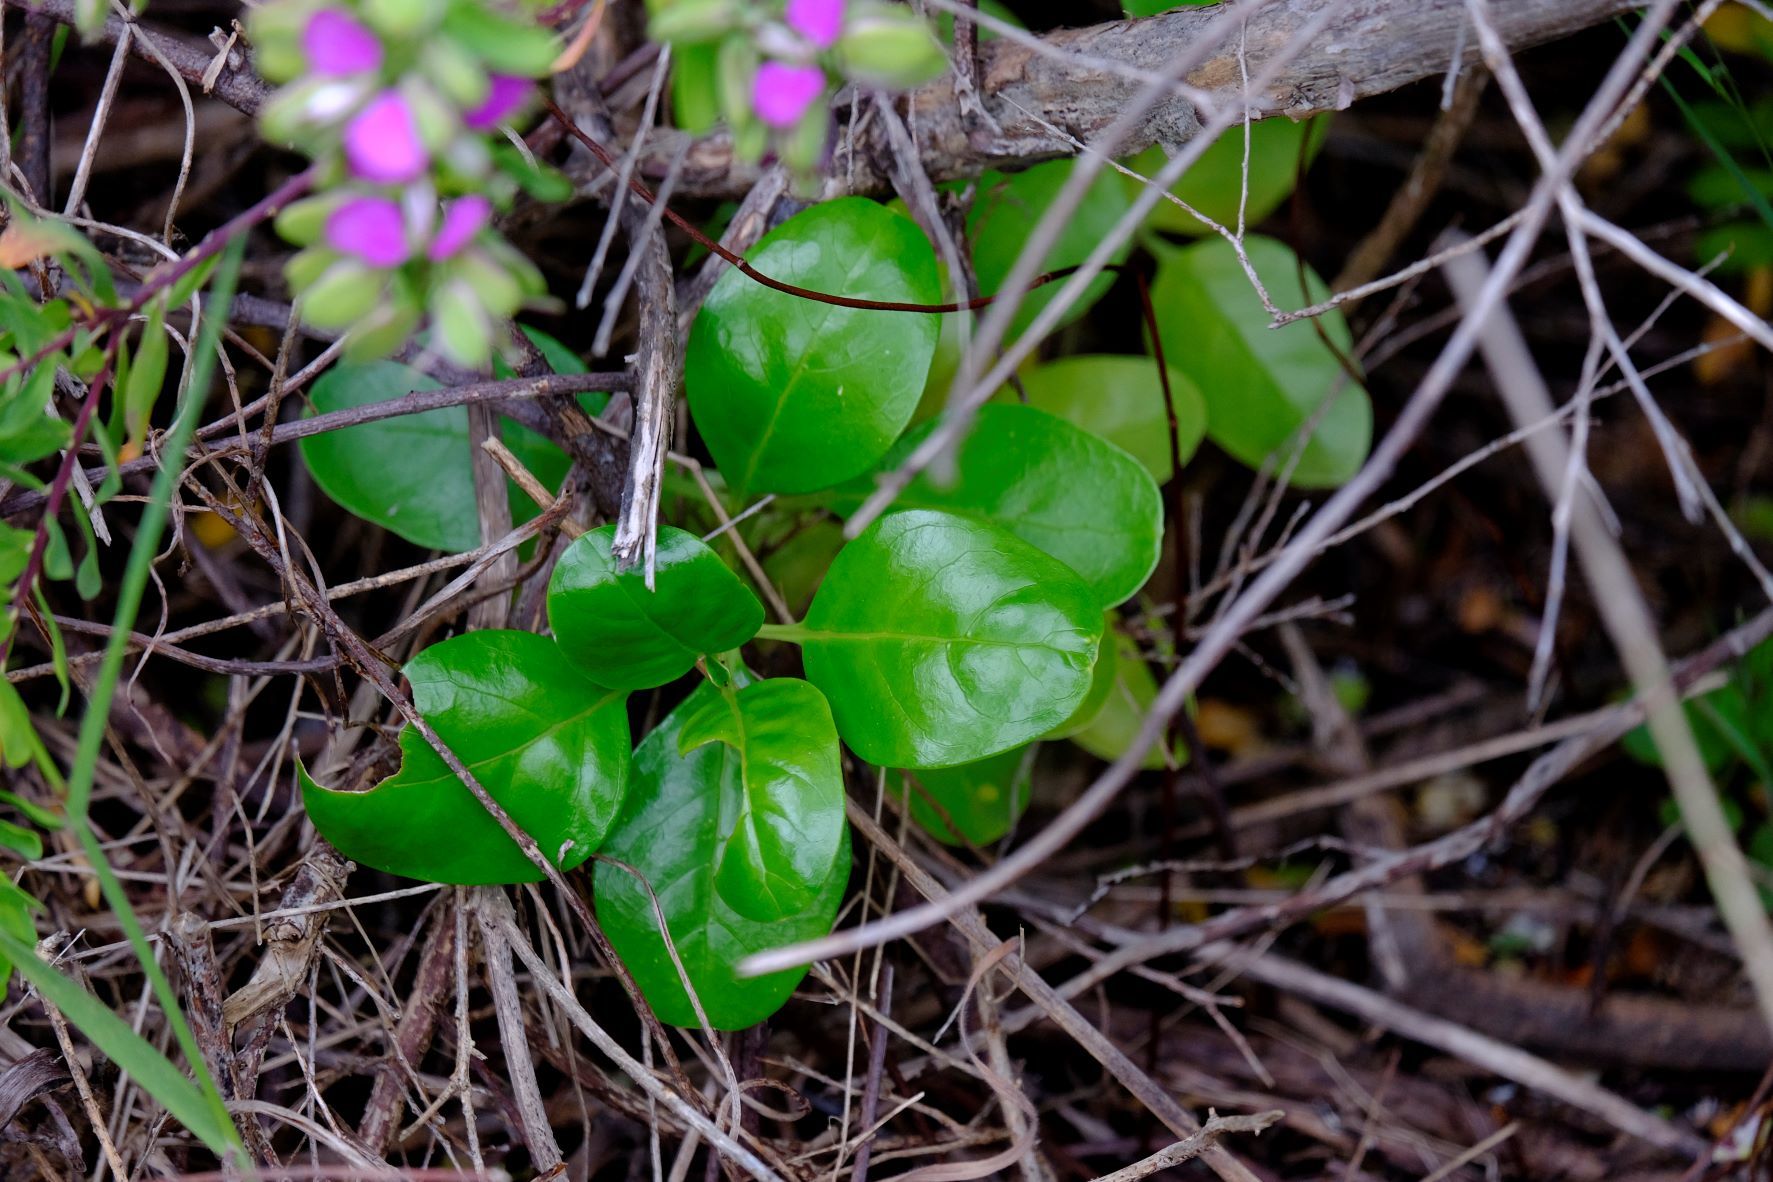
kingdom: Plantae
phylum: Tracheophyta
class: Magnoliopsida
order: Gentianales
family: Rubiaceae
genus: Coprosma
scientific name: Coprosma repens
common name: Tree bedstraw
